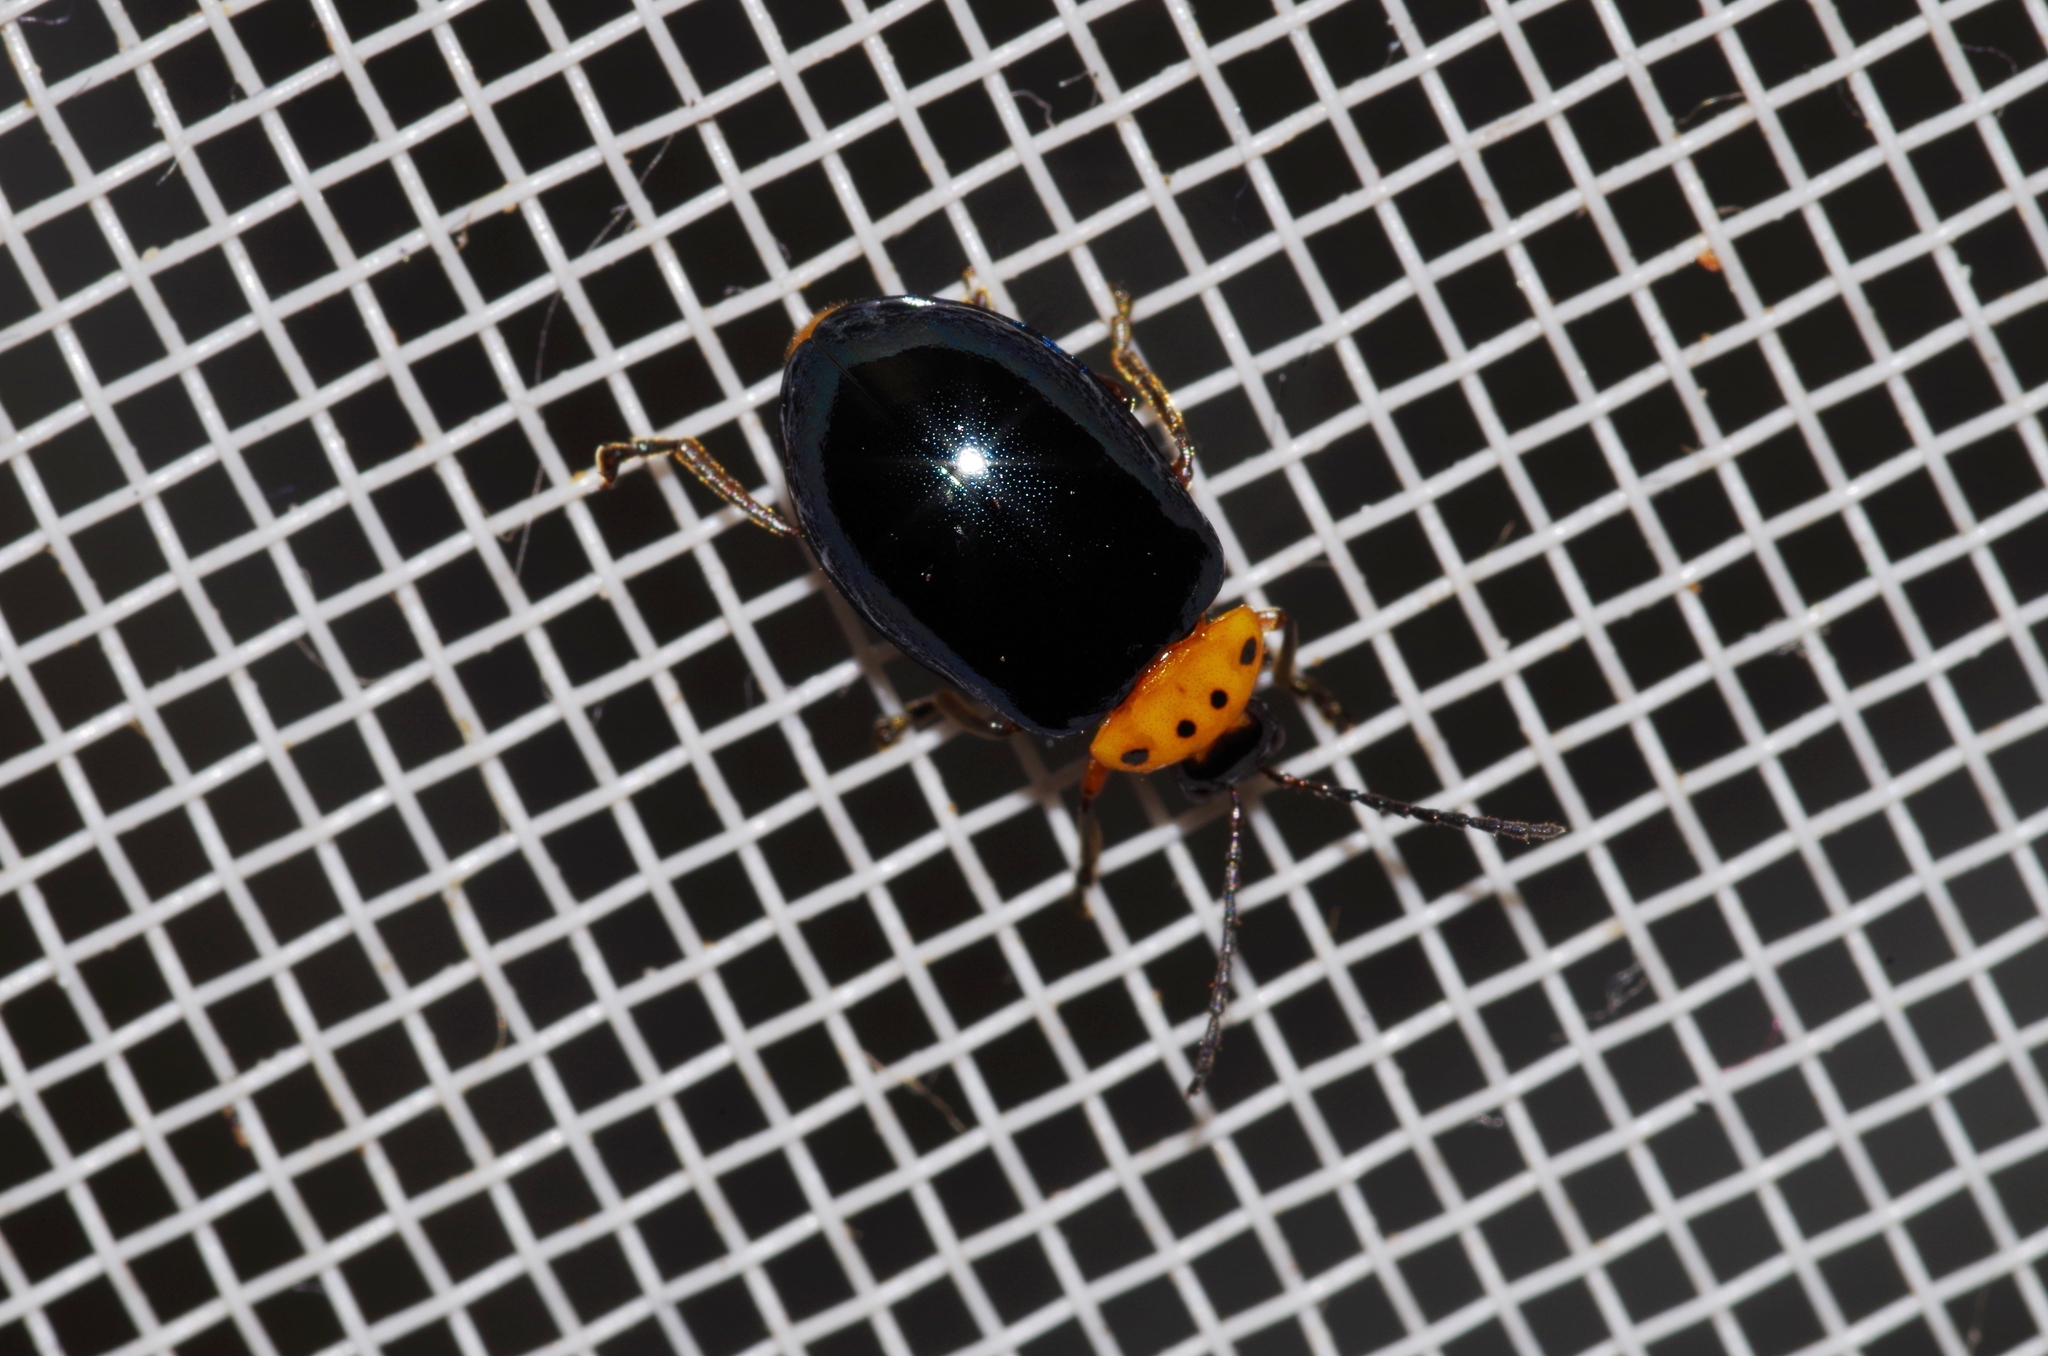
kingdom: Animalia
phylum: Arthropoda
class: Insecta
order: Coleoptera
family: Chrysomelidae
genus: Morphosphaera
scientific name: Morphosphaera caerulea
